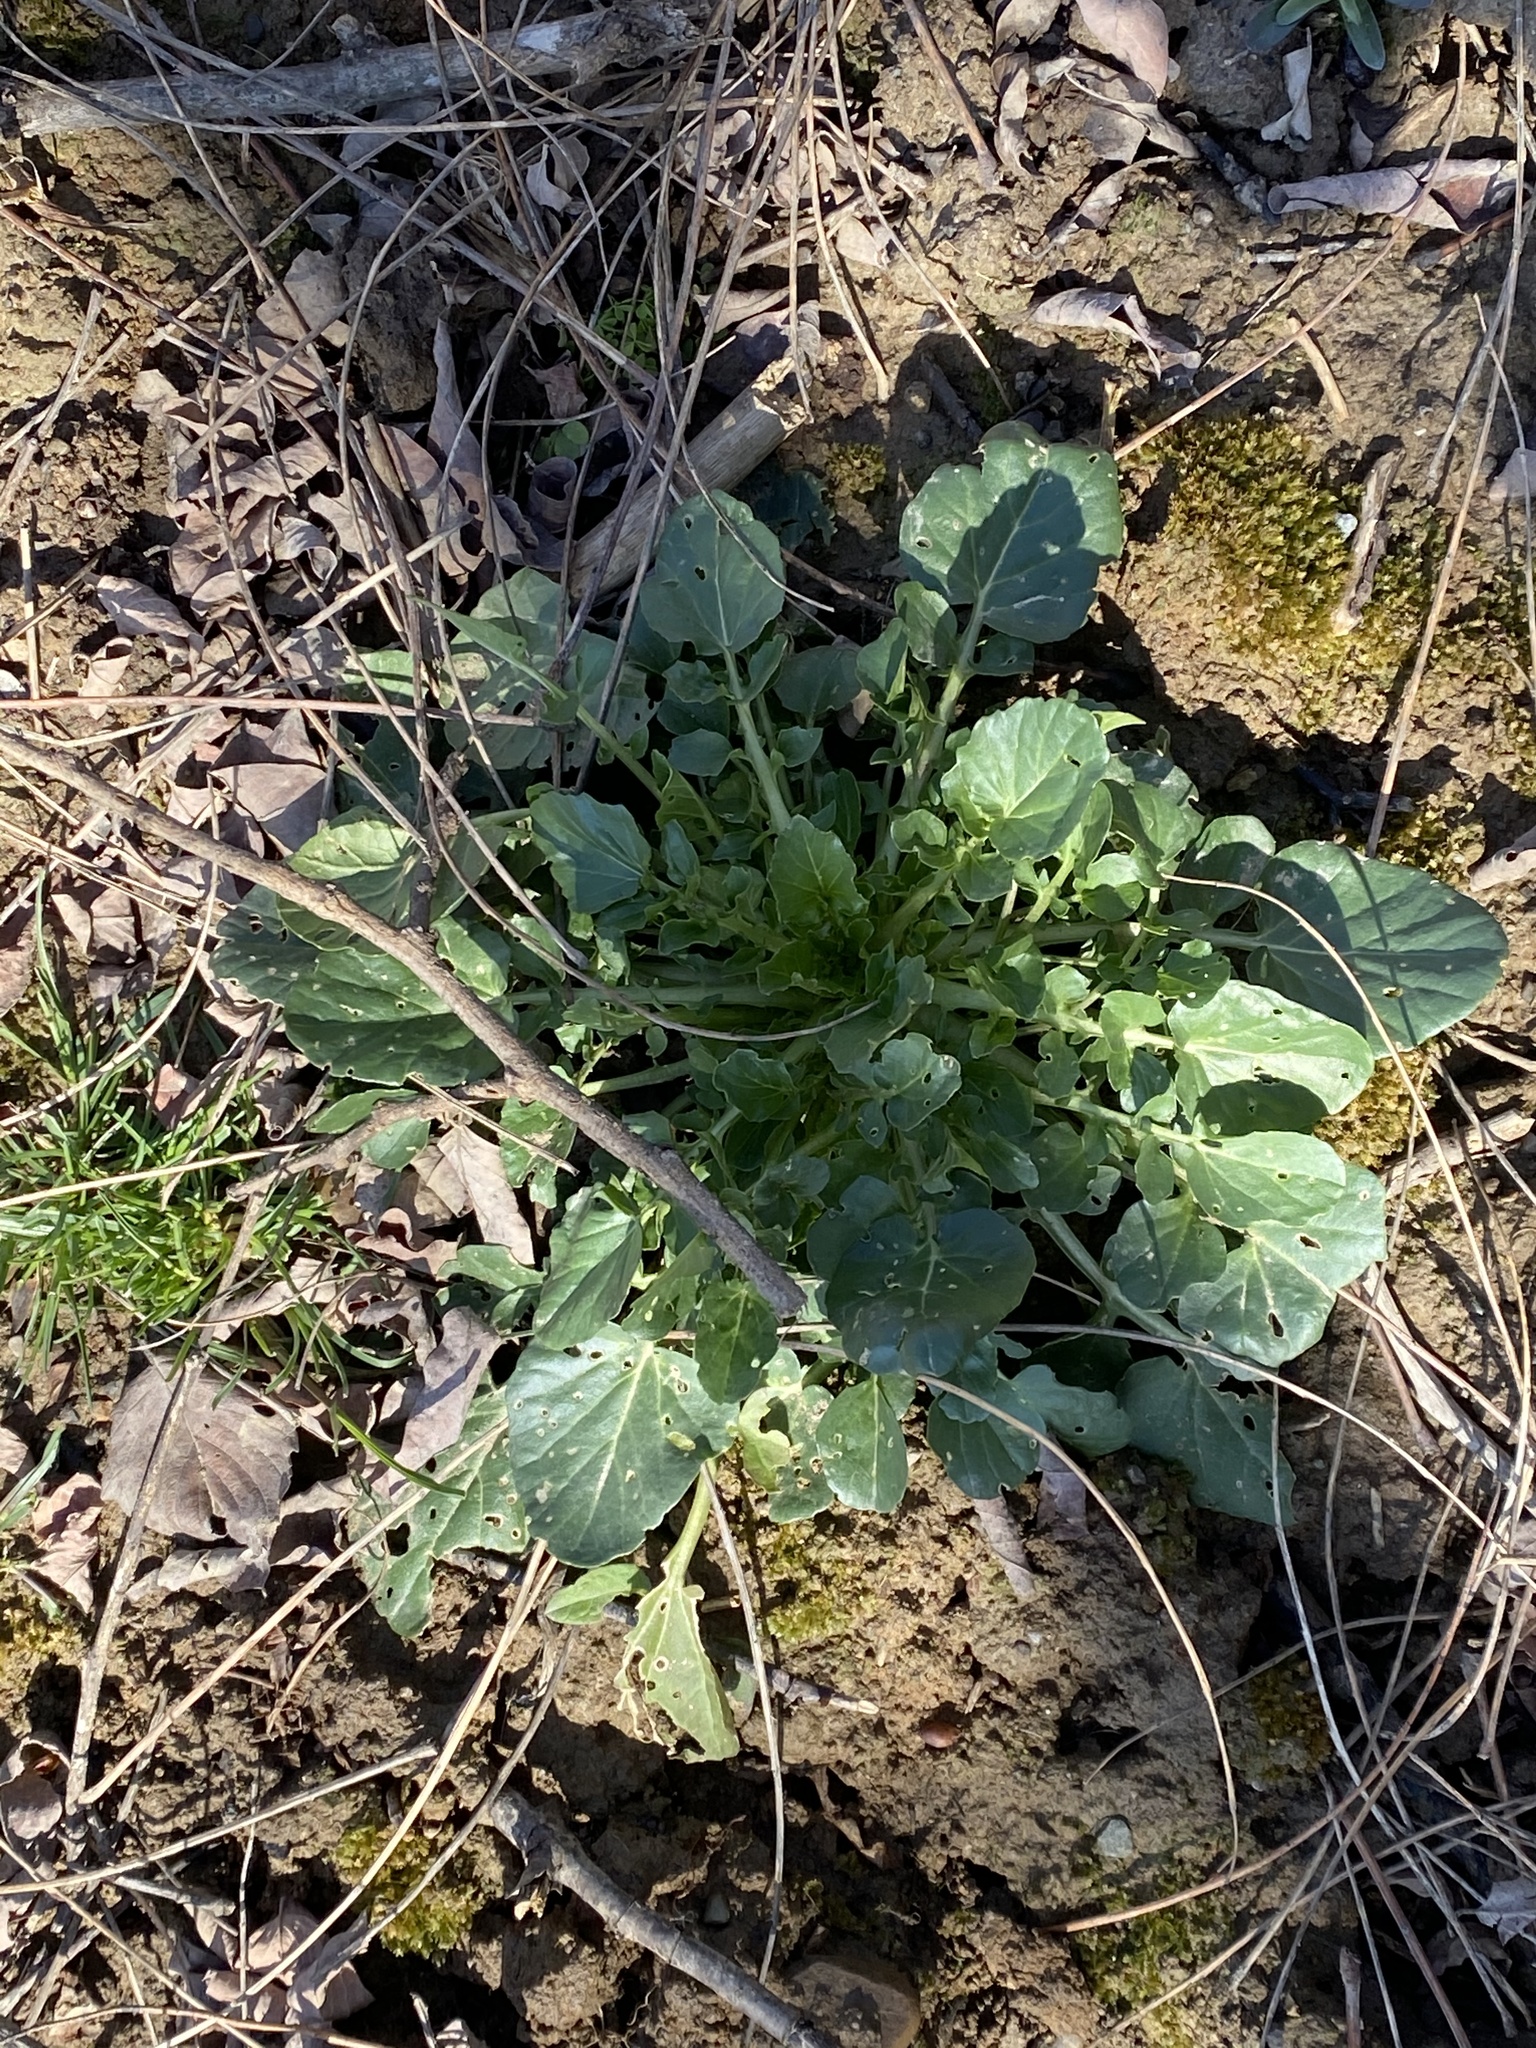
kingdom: Plantae
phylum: Tracheophyta
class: Magnoliopsida
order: Brassicales
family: Brassicaceae
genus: Barbarea
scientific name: Barbarea vulgaris
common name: Cressy-greens
